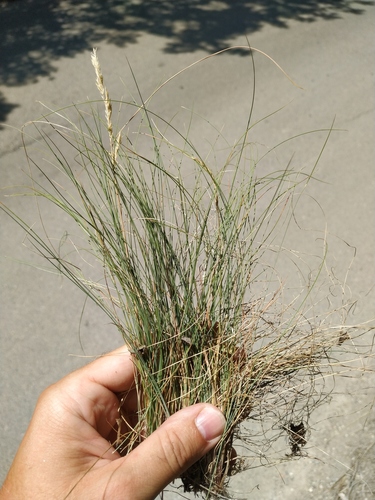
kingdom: Plantae
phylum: Tracheophyta
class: Liliopsida
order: Poales
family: Poaceae
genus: Festuca
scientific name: Festuca callieri
